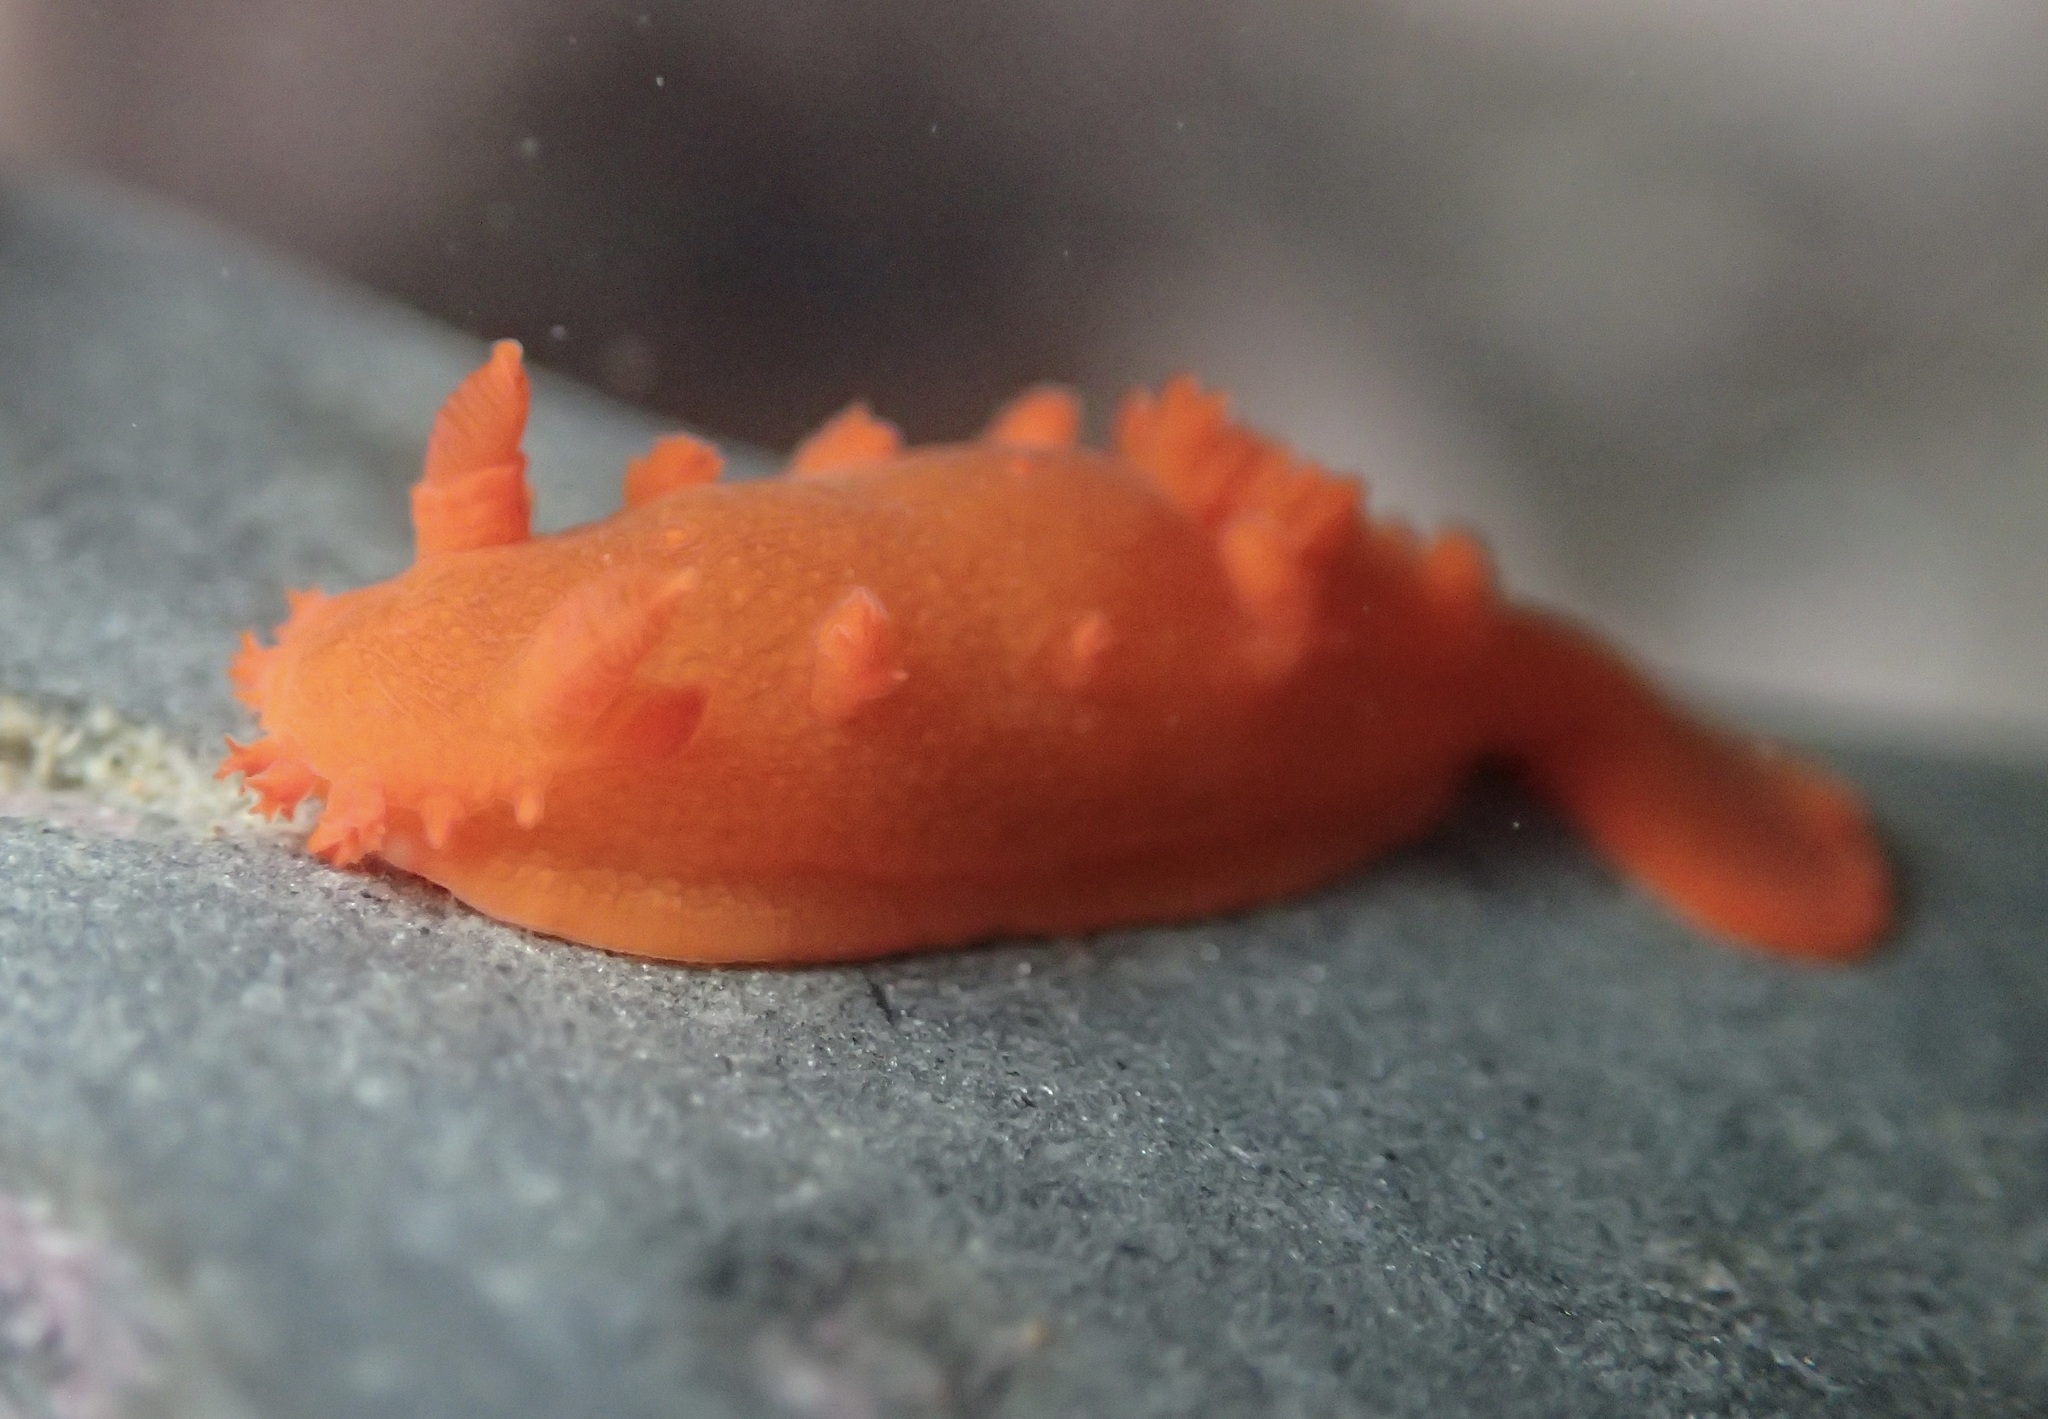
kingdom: Animalia
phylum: Mollusca
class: Gastropoda
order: Nudibranchia
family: Polyceridae
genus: Triopha
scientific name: Triopha maculata
